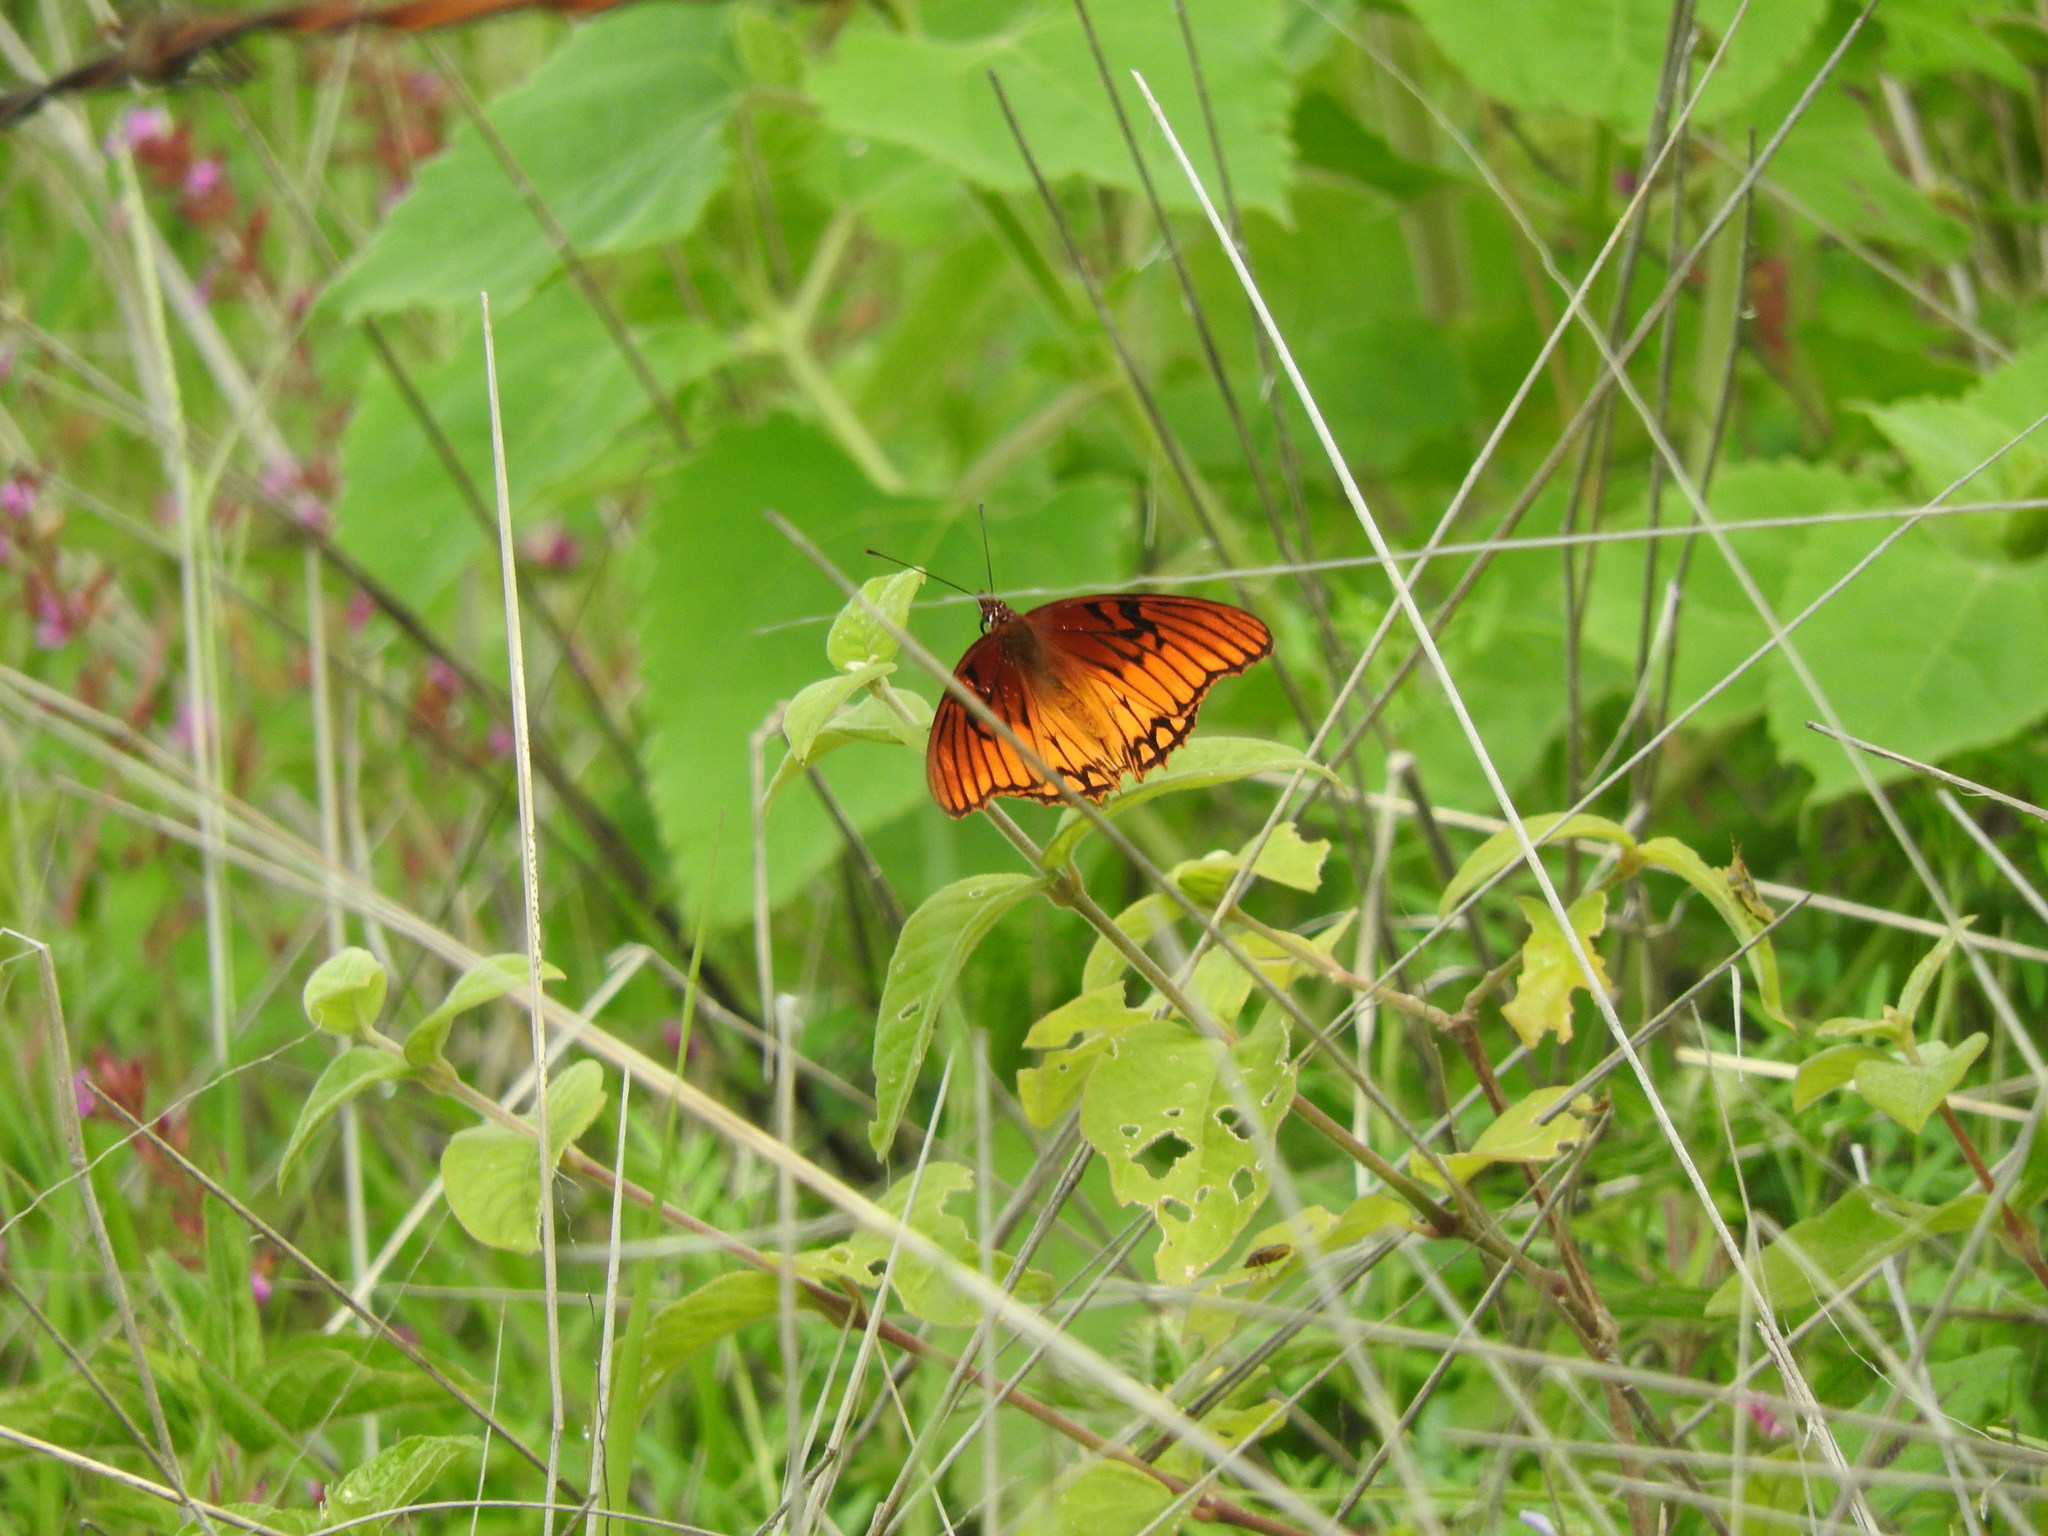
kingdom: Animalia
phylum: Arthropoda
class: Insecta
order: Lepidoptera
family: Nymphalidae
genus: Dione
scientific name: Dione moneta
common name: Mexican silverspot
